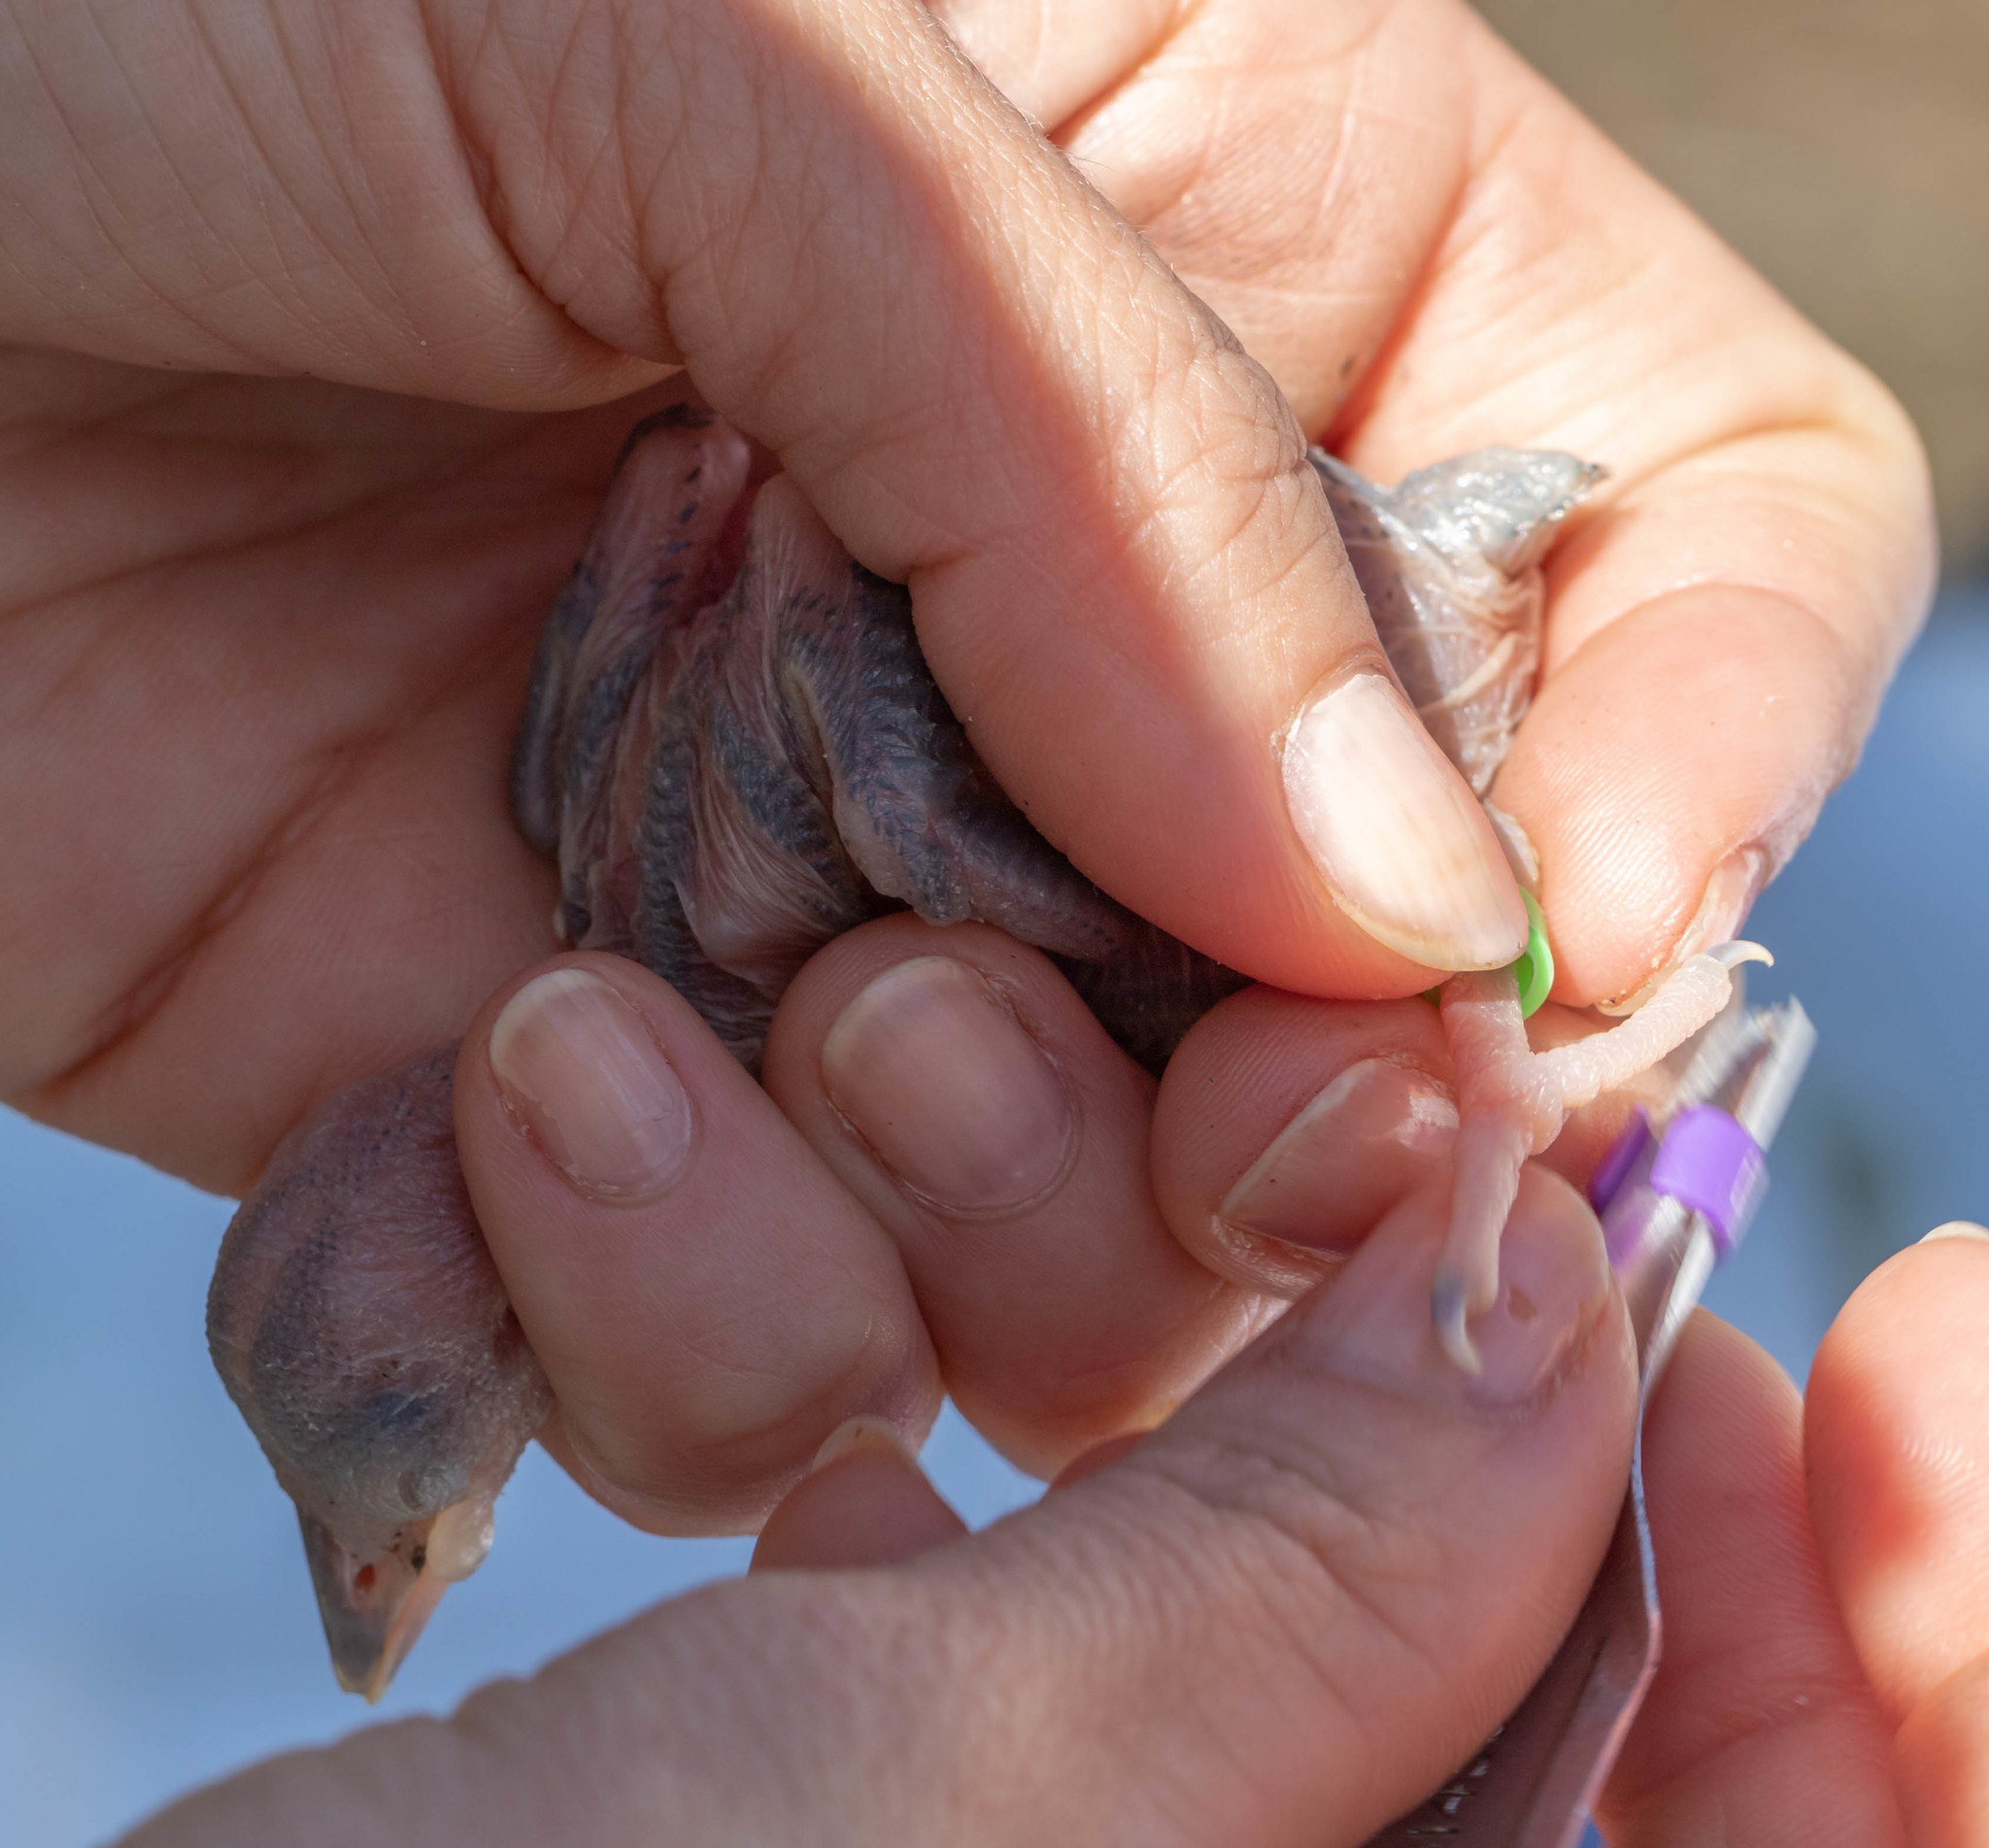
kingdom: Animalia
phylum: Chordata
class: Aves
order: Piciformes
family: Picidae
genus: Leuconotopicus
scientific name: Leuconotopicus borealis
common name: Red-cockaded woodpecker
